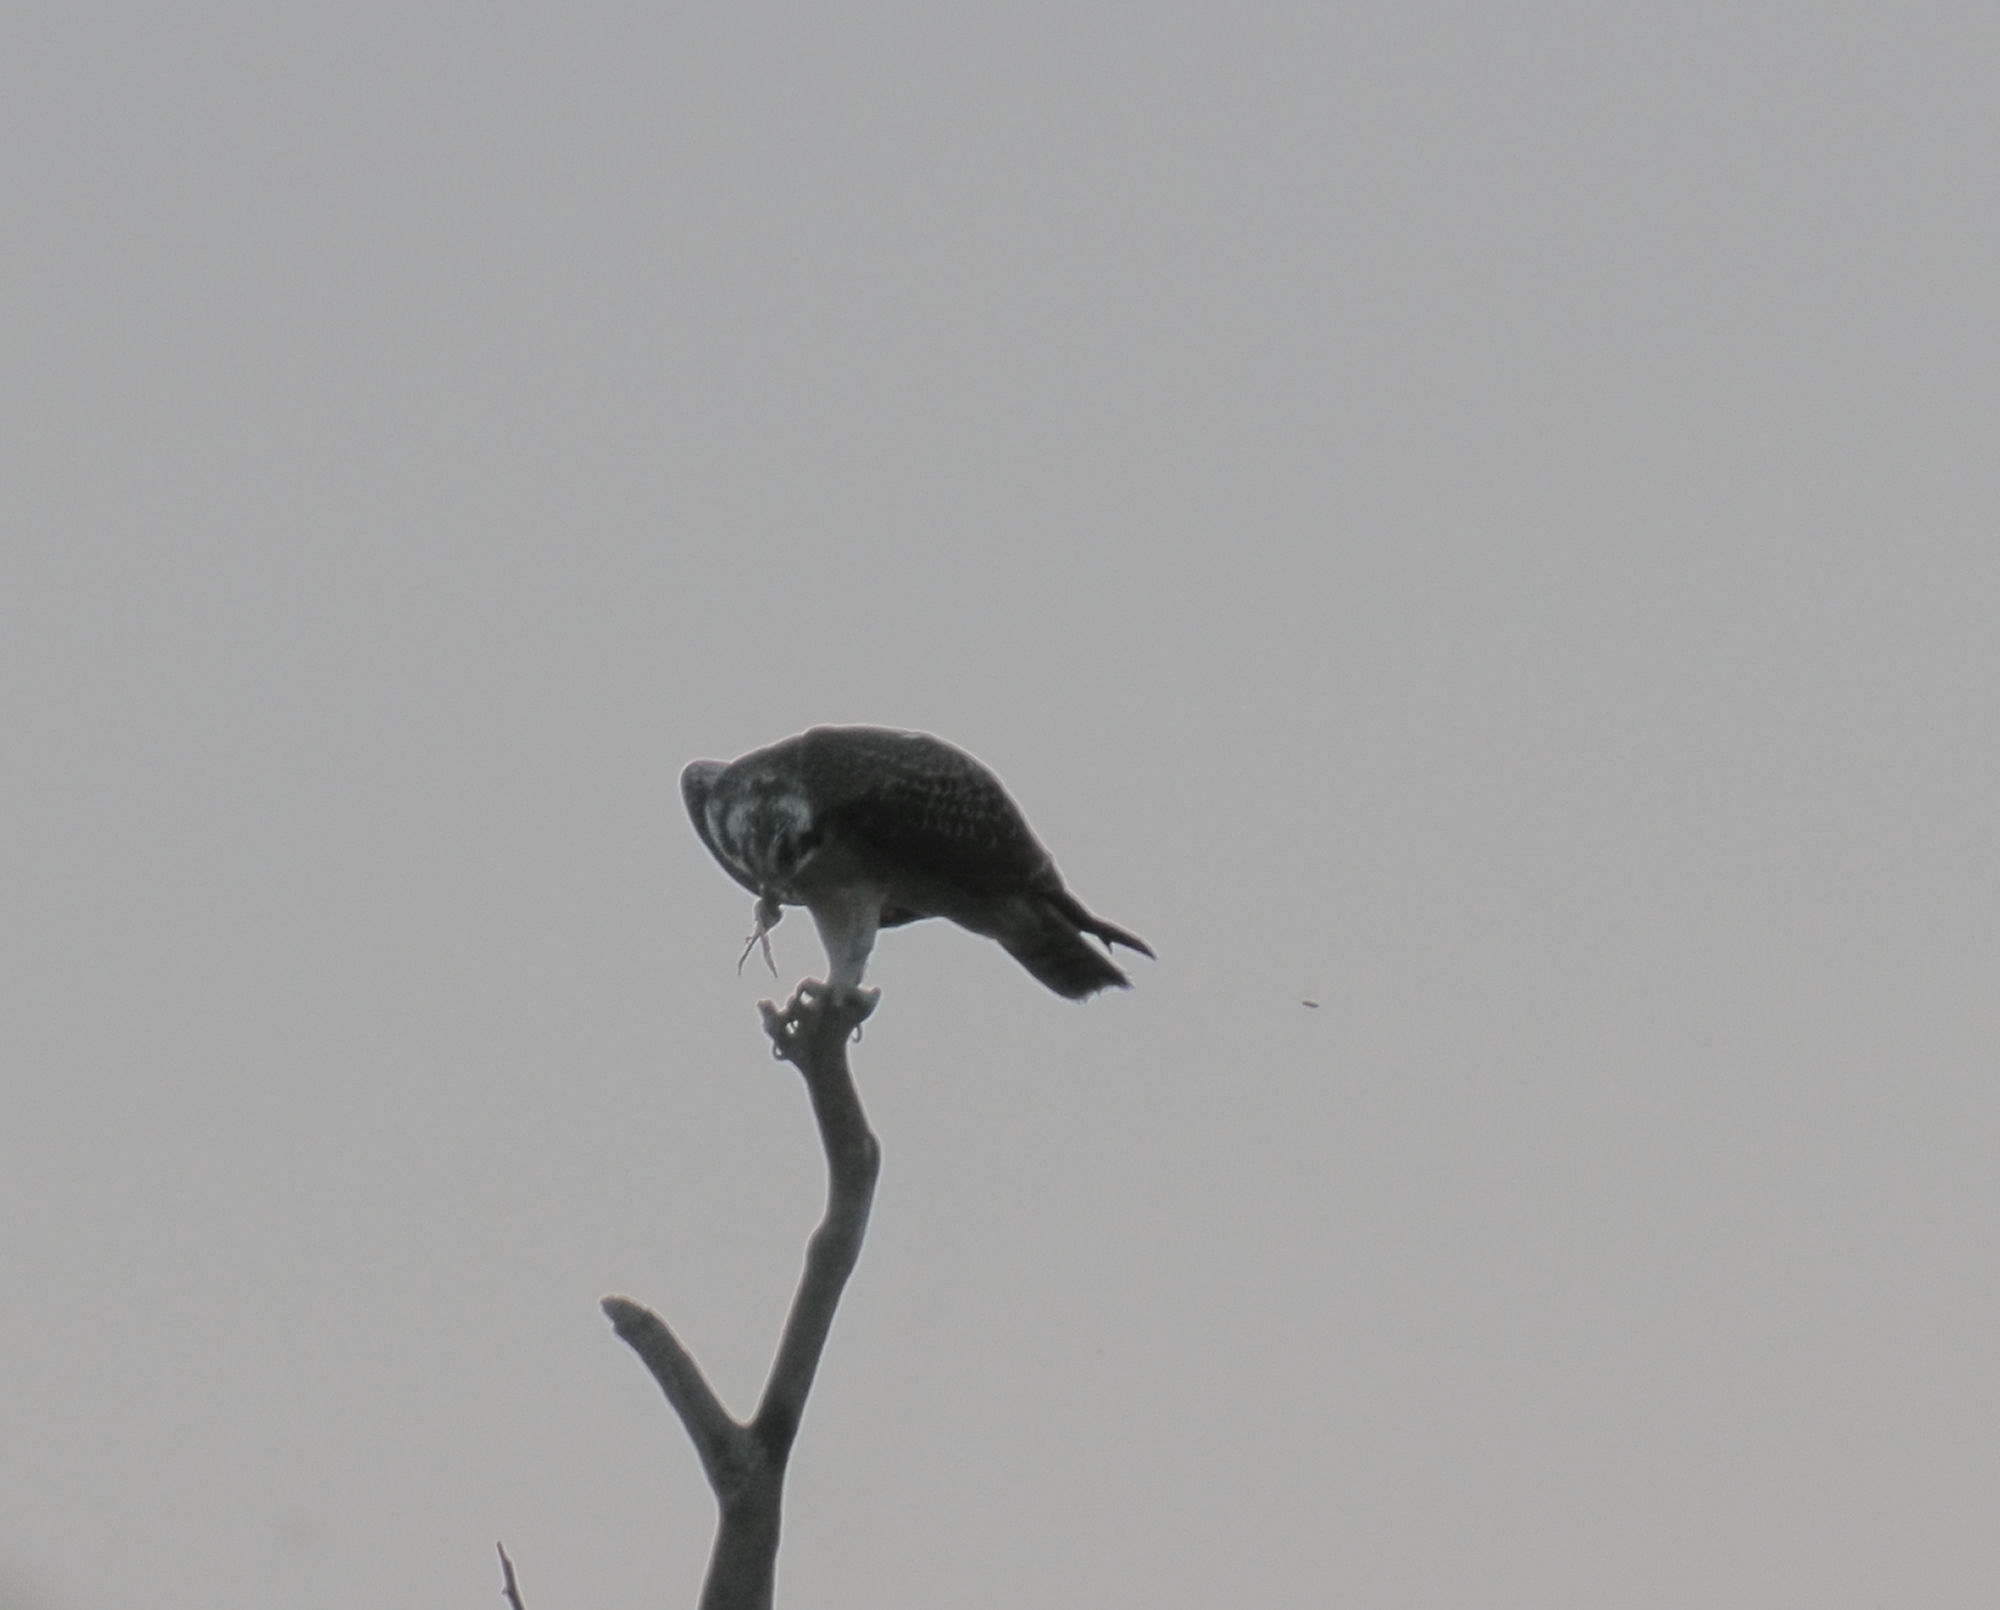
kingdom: Animalia
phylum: Chordata
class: Aves
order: Accipitriformes
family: Pandionidae
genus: Pandion
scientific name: Pandion haliaetus
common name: Osprey
